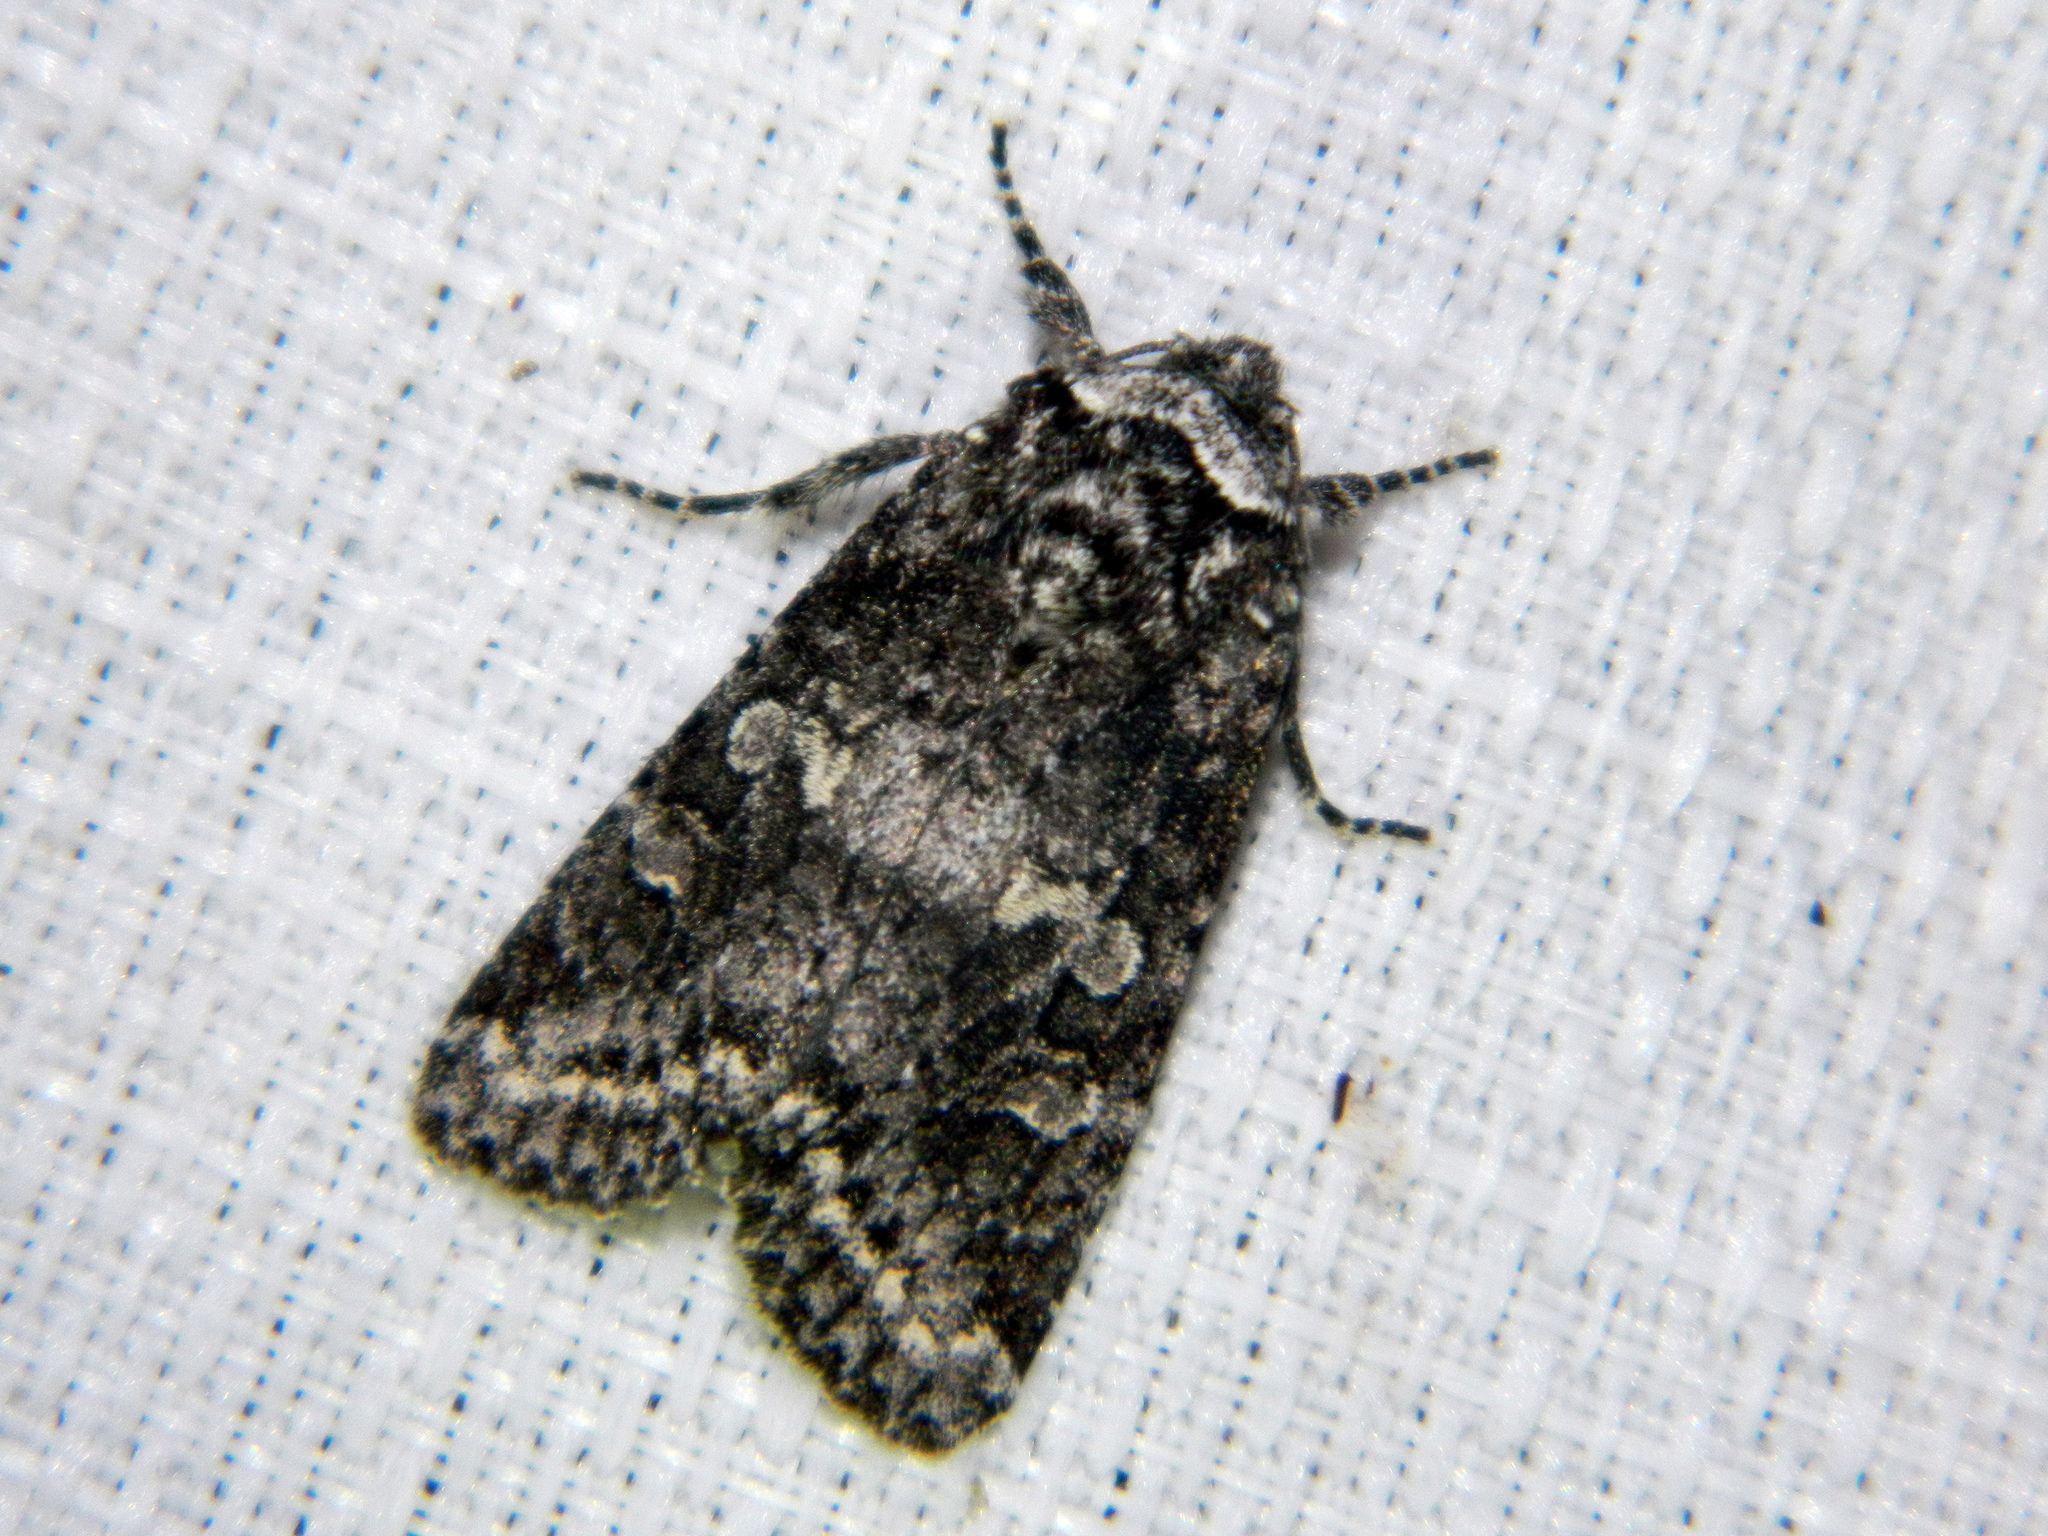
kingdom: Animalia
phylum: Arthropoda
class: Insecta
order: Lepidoptera
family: Noctuidae
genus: Egira
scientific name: Egira dolosa
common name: Lined black aspen cat.
